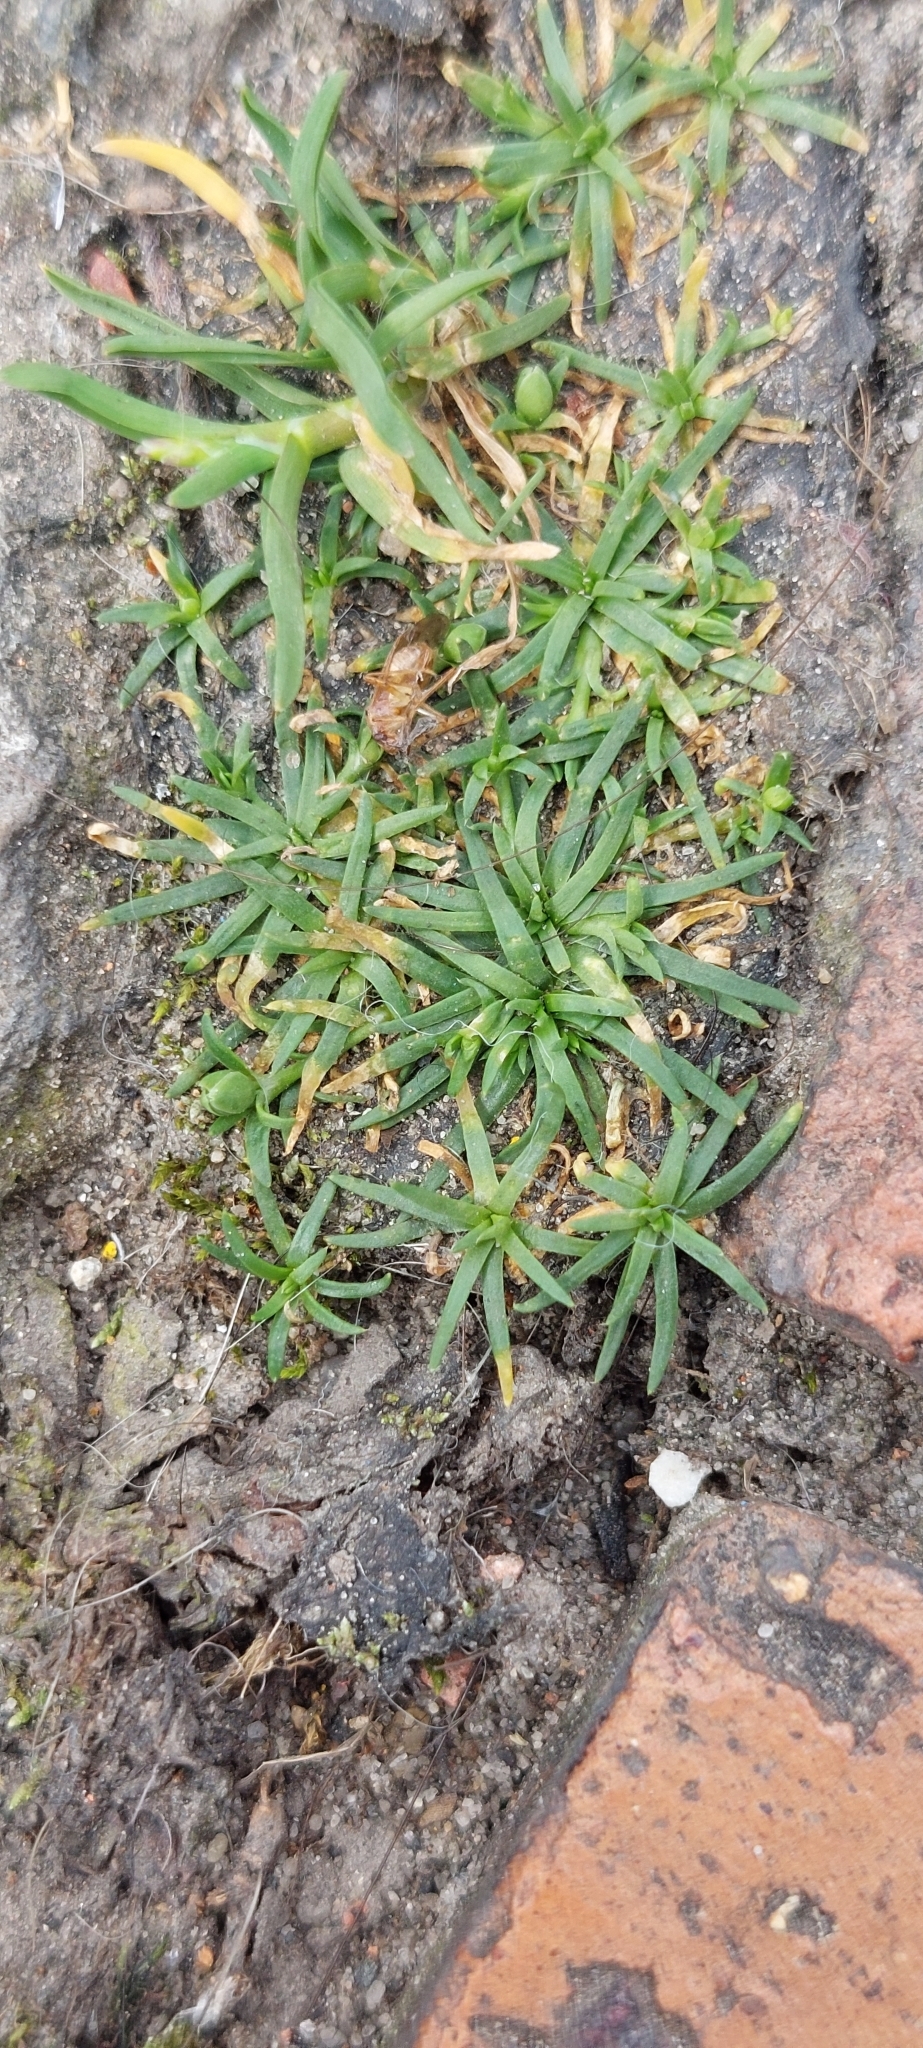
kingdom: Plantae
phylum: Tracheophyta
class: Magnoliopsida
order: Caryophyllales
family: Caryophyllaceae
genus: Sagina
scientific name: Sagina procumbens
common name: Procumbent pearlwort
